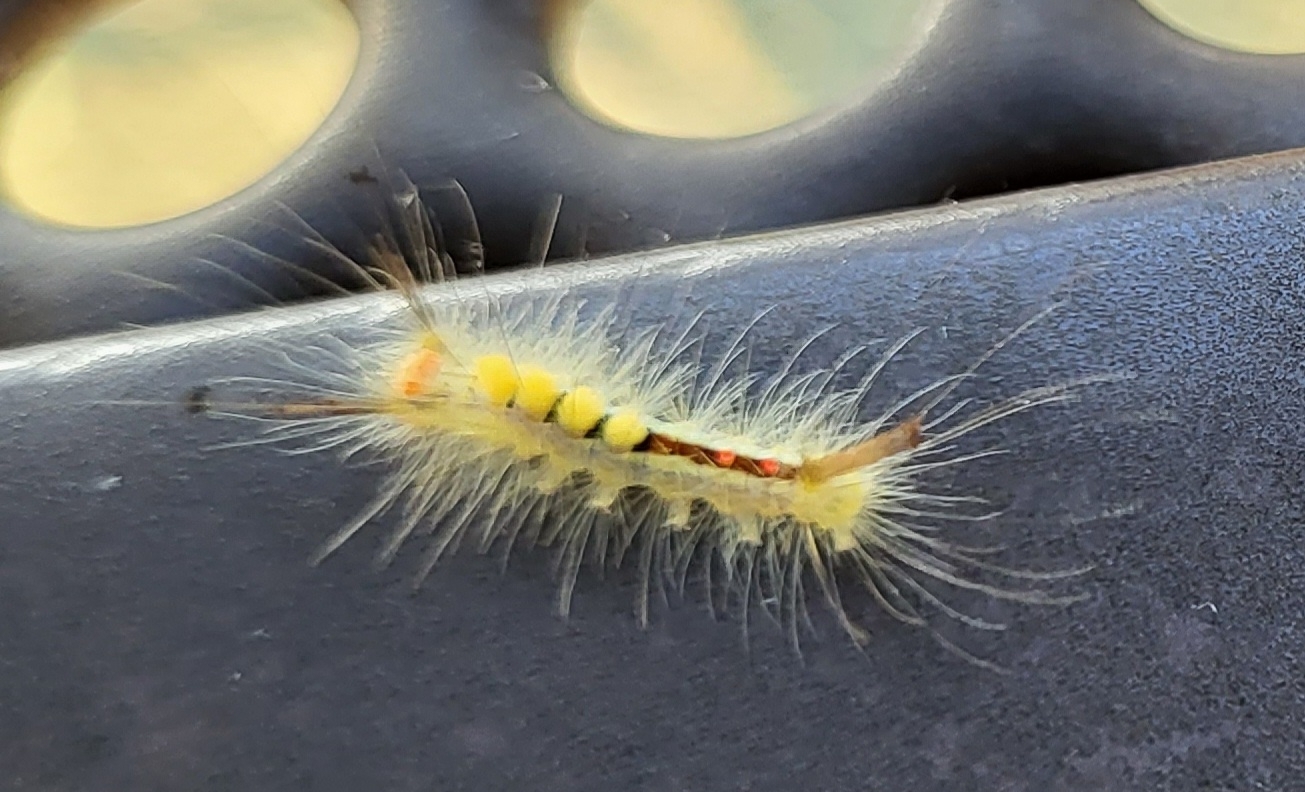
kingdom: Animalia
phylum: Arthropoda
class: Insecta
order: Lepidoptera
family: Erebidae
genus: Orgyia
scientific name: Orgyia leucostigma
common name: White-marked tussock moth
